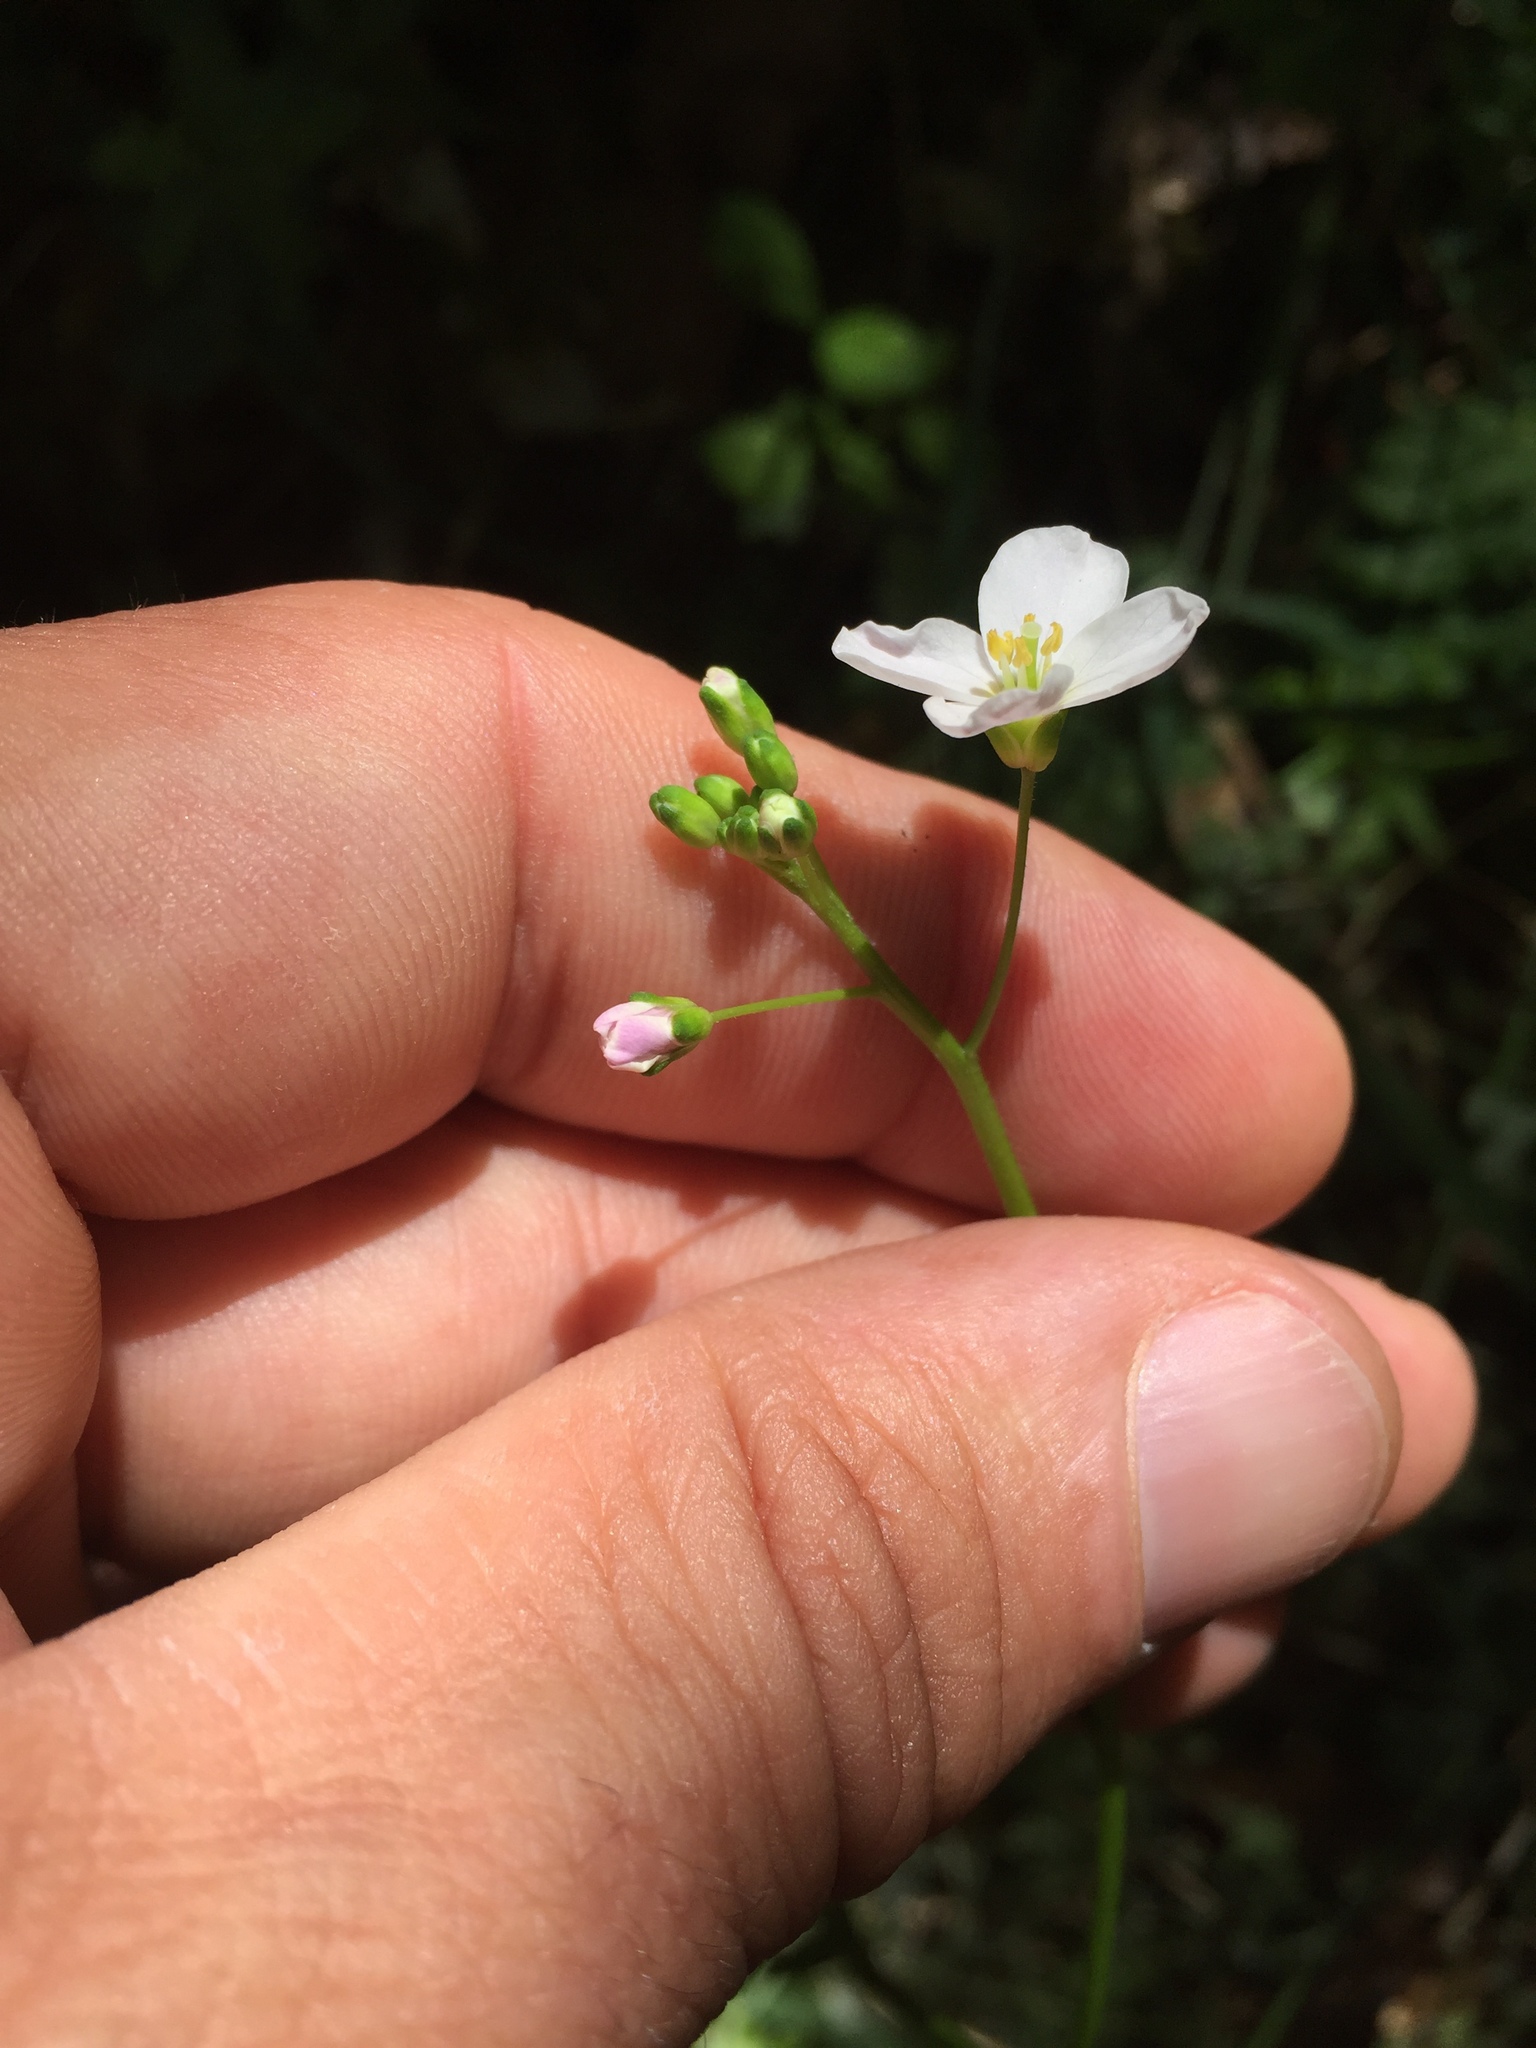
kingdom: Plantae
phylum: Tracheophyta
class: Magnoliopsida
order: Brassicales
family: Brassicaceae
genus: Cardamine
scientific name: Cardamine californica
